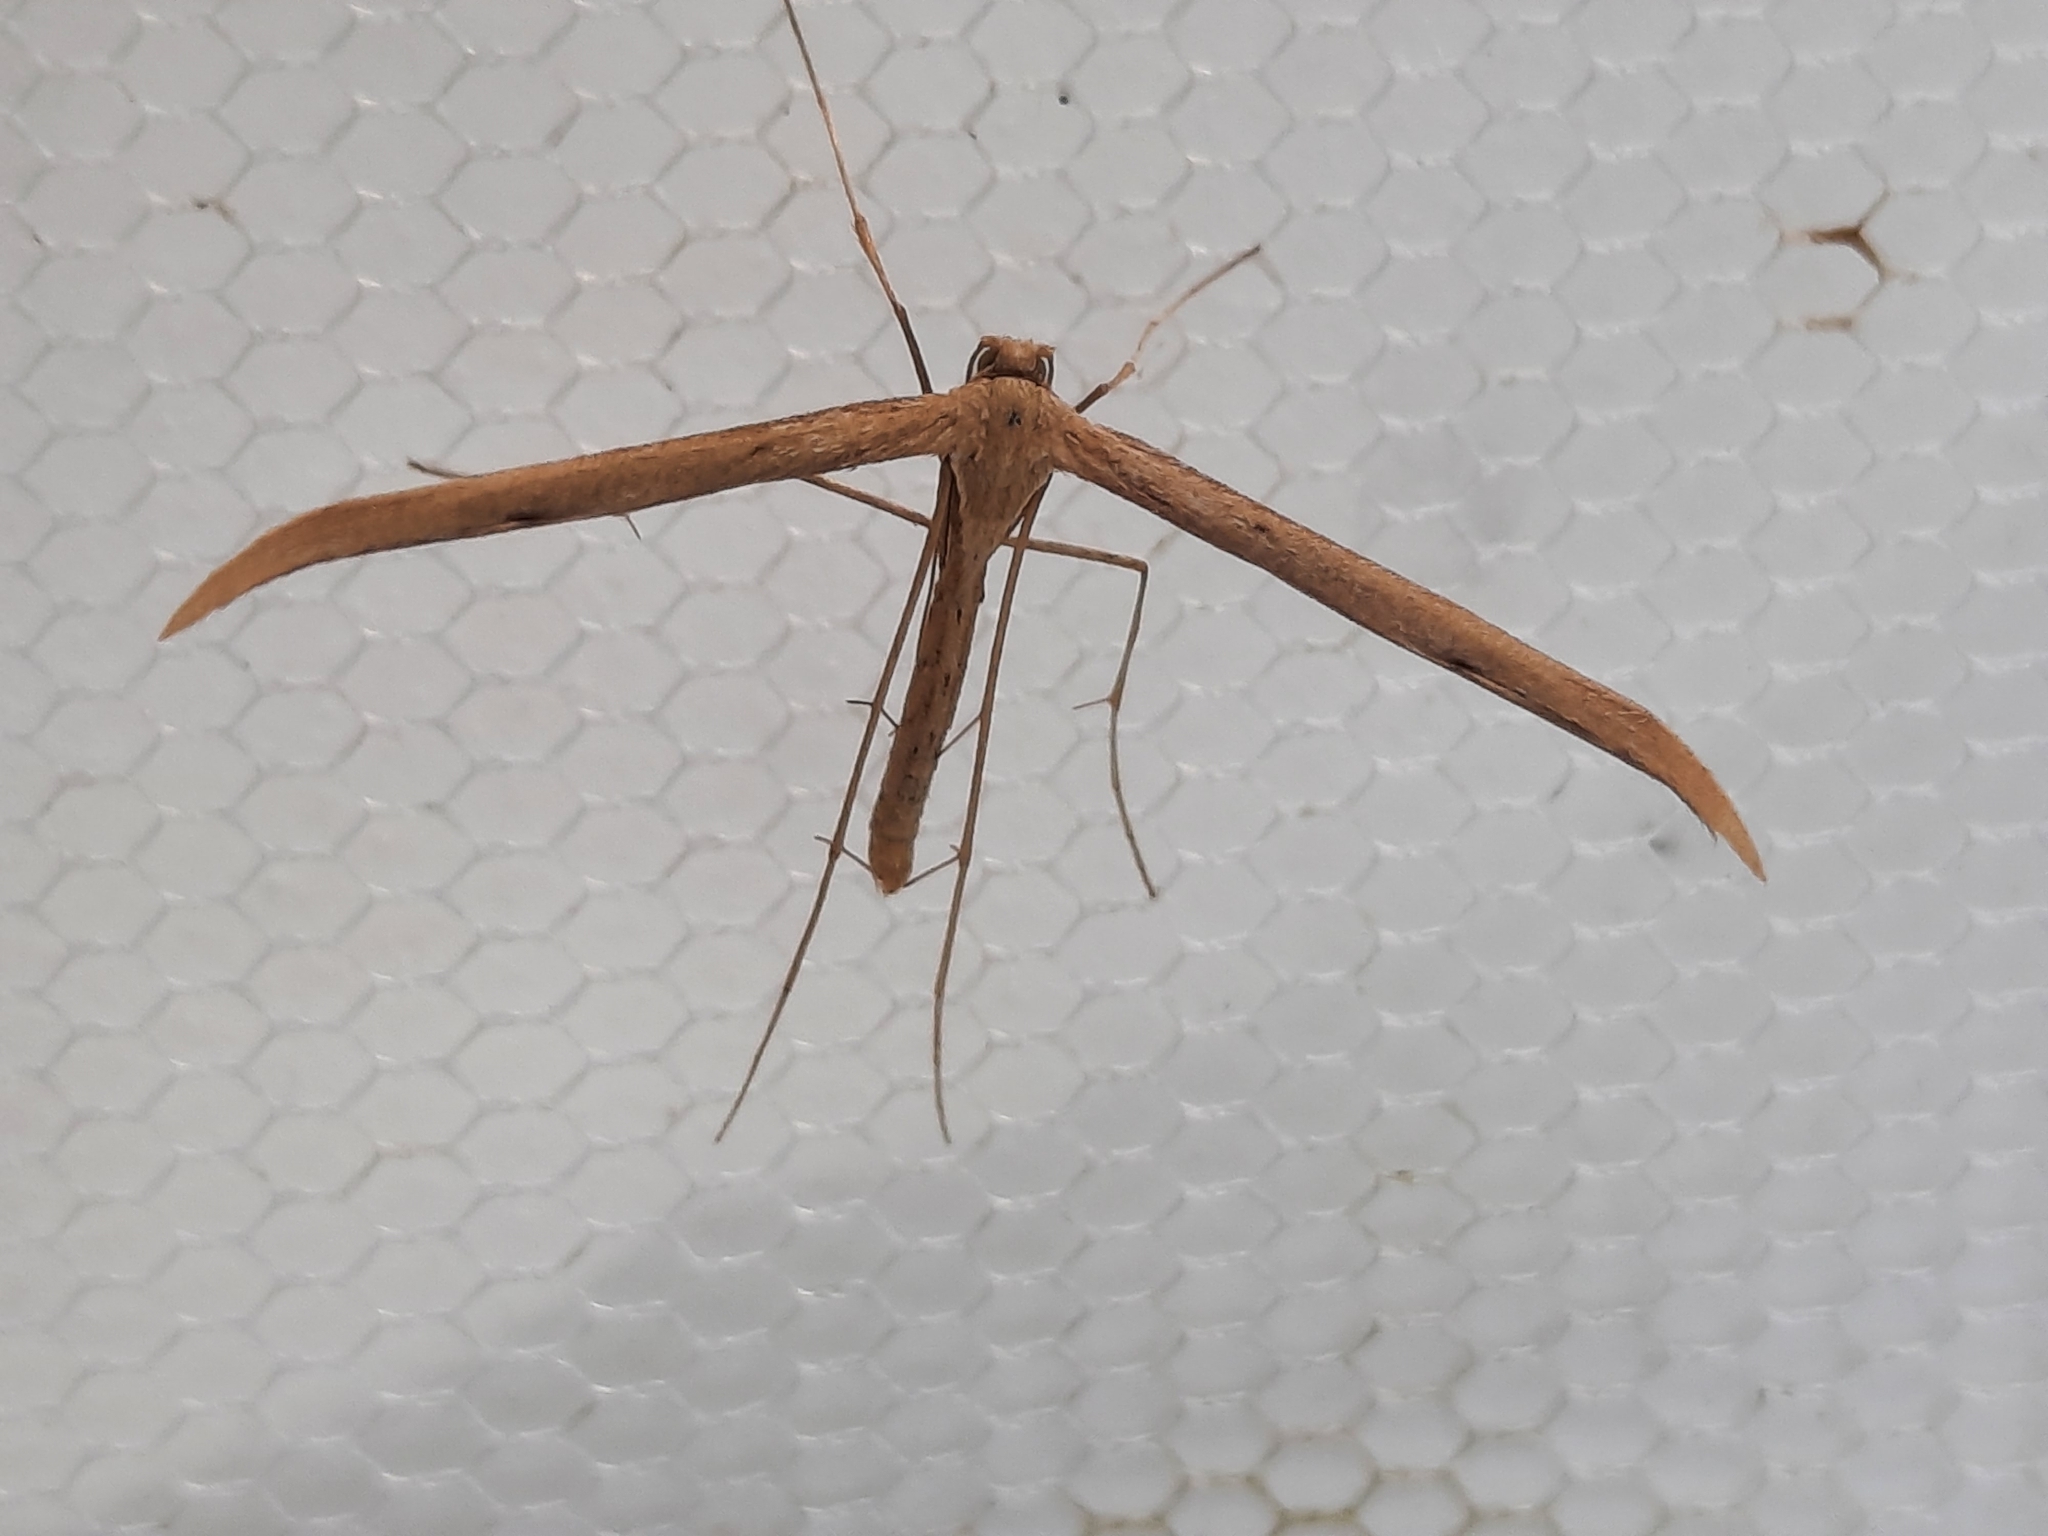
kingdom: Animalia
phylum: Arthropoda
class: Insecta
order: Lepidoptera
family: Pterophoridae
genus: Emmelina
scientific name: Emmelina monodactyla
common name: Common plume
